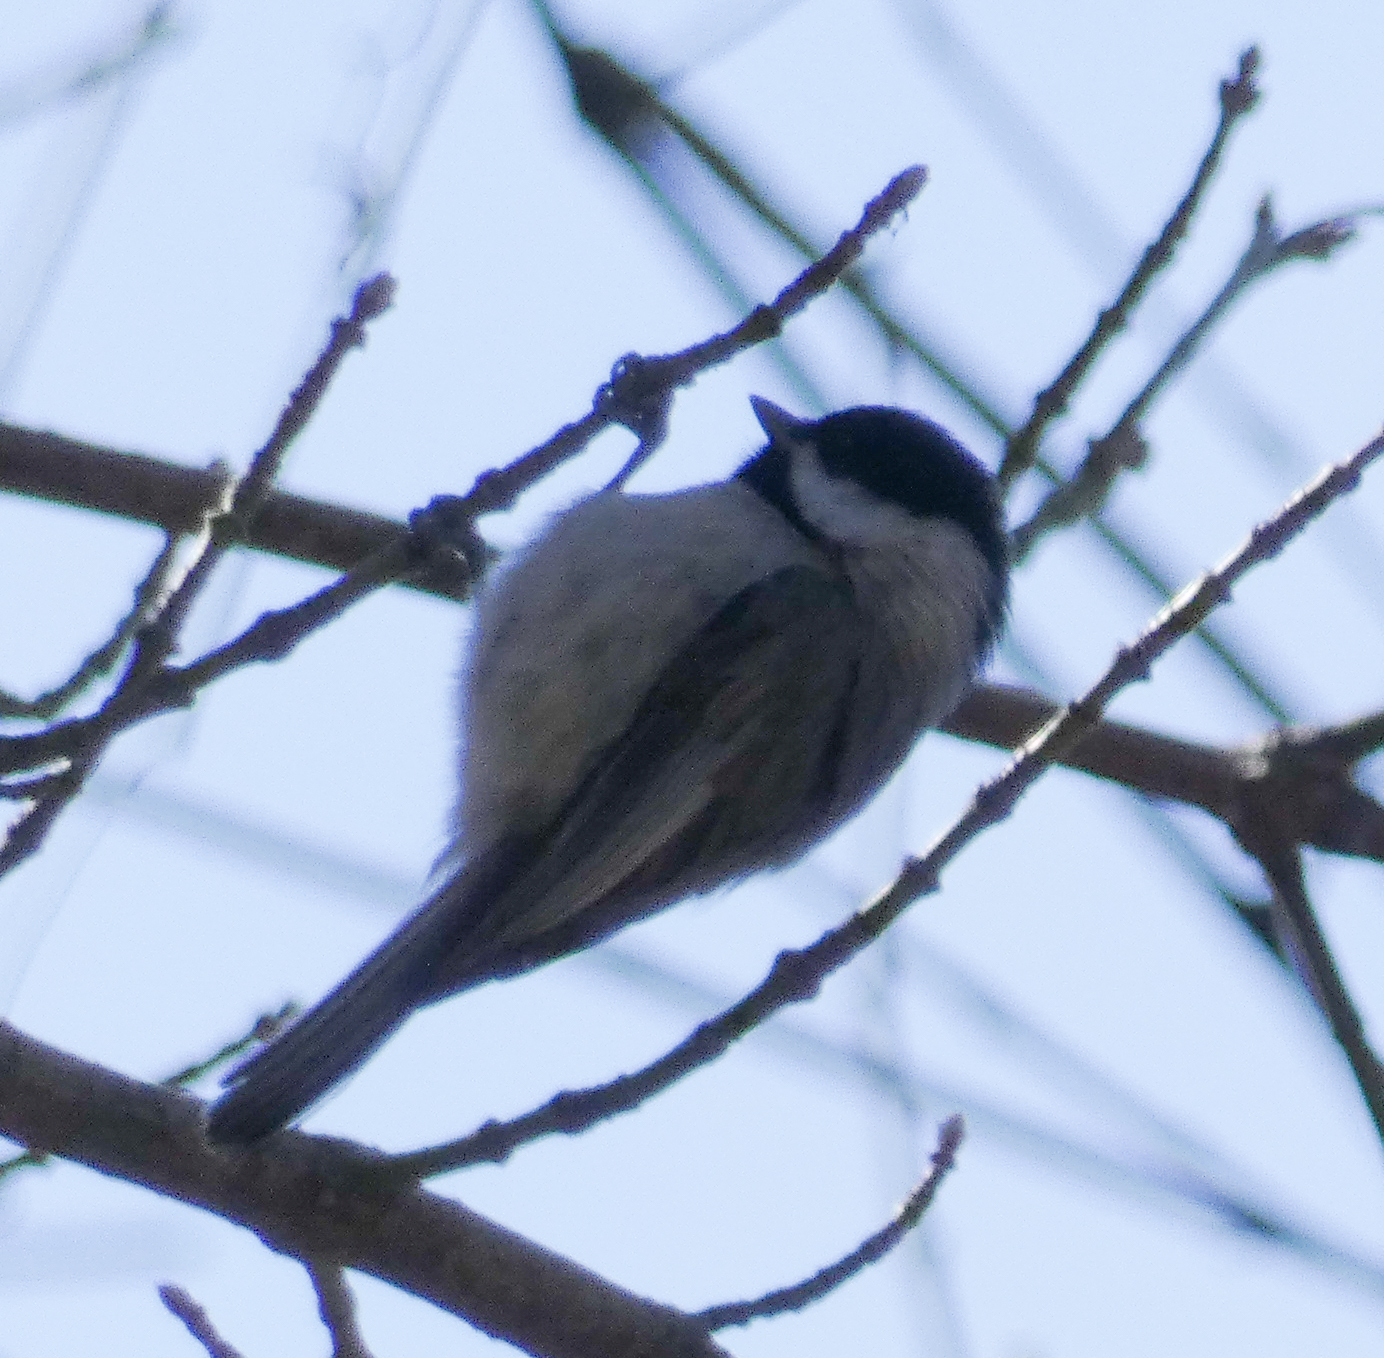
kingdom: Animalia
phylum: Chordata
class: Aves
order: Passeriformes
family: Paridae
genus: Poecile
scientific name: Poecile carolinensis
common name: Carolina chickadee
